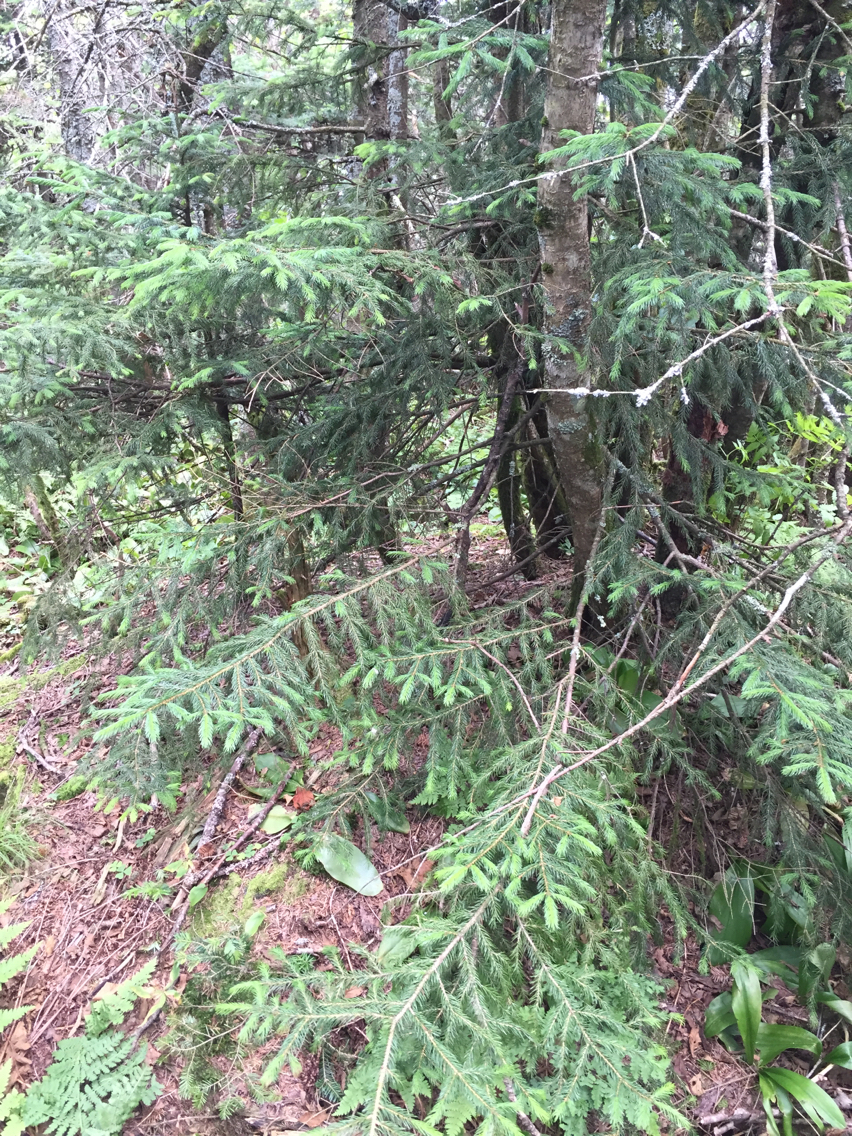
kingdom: Plantae
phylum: Tracheophyta
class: Pinopsida
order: Pinales
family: Pinaceae
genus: Picea
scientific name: Picea rubens
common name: Red spruce
